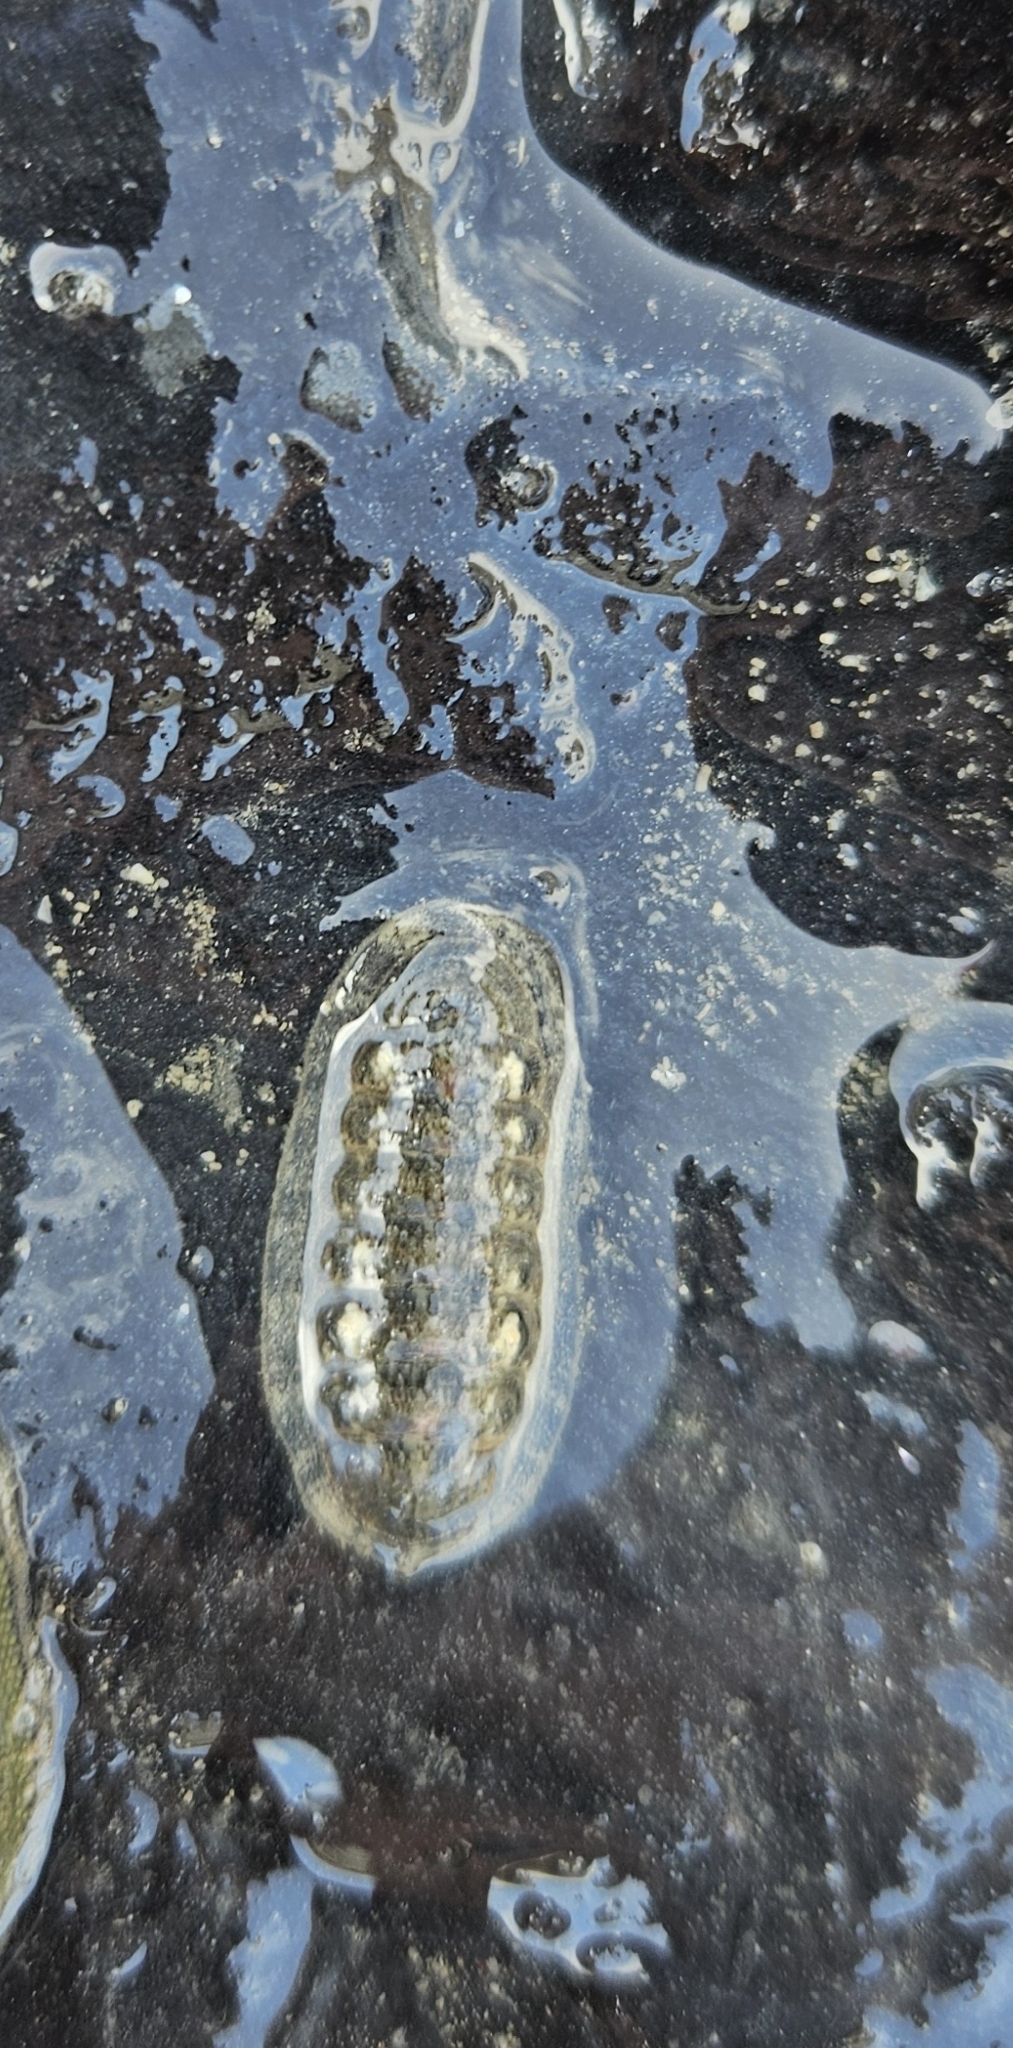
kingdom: Animalia
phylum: Mollusca
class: Polyplacophora
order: Chitonida
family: Ischnochitonidae
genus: Ischnochiton
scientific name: Ischnochiton maorianus
